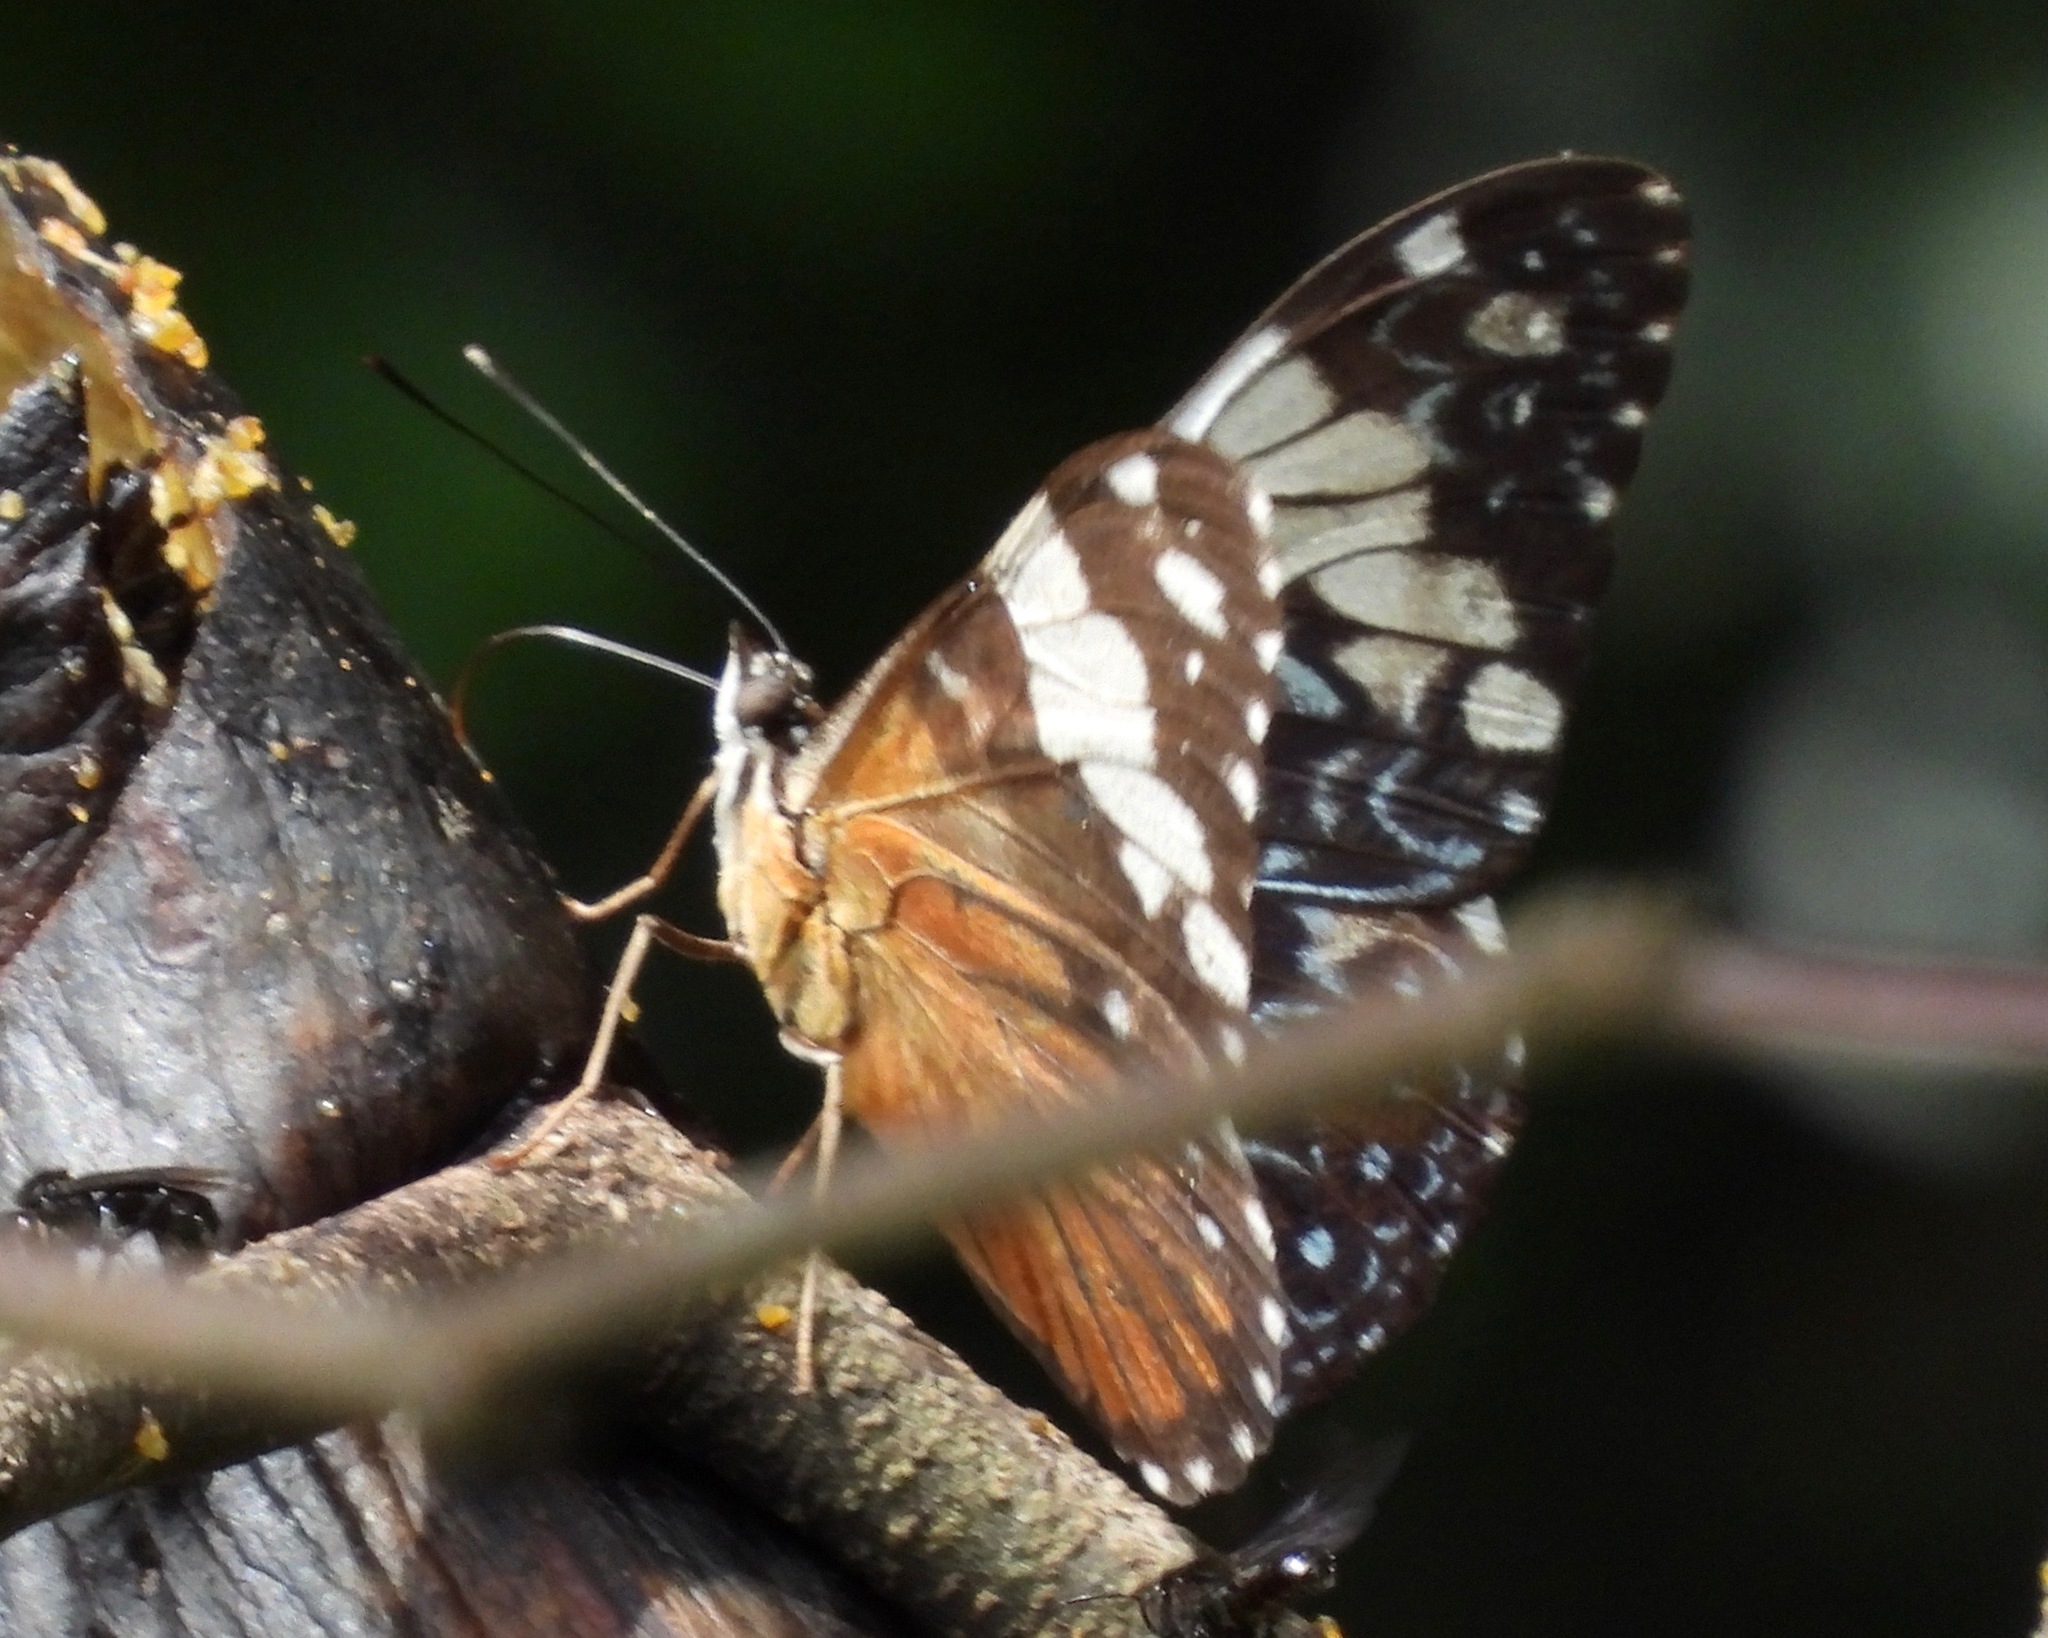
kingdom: Animalia
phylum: Arthropoda
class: Insecta
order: Lepidoptera
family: Nymphalidae
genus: Hamadryas
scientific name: Hamadryas amphinome
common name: Red cracker
